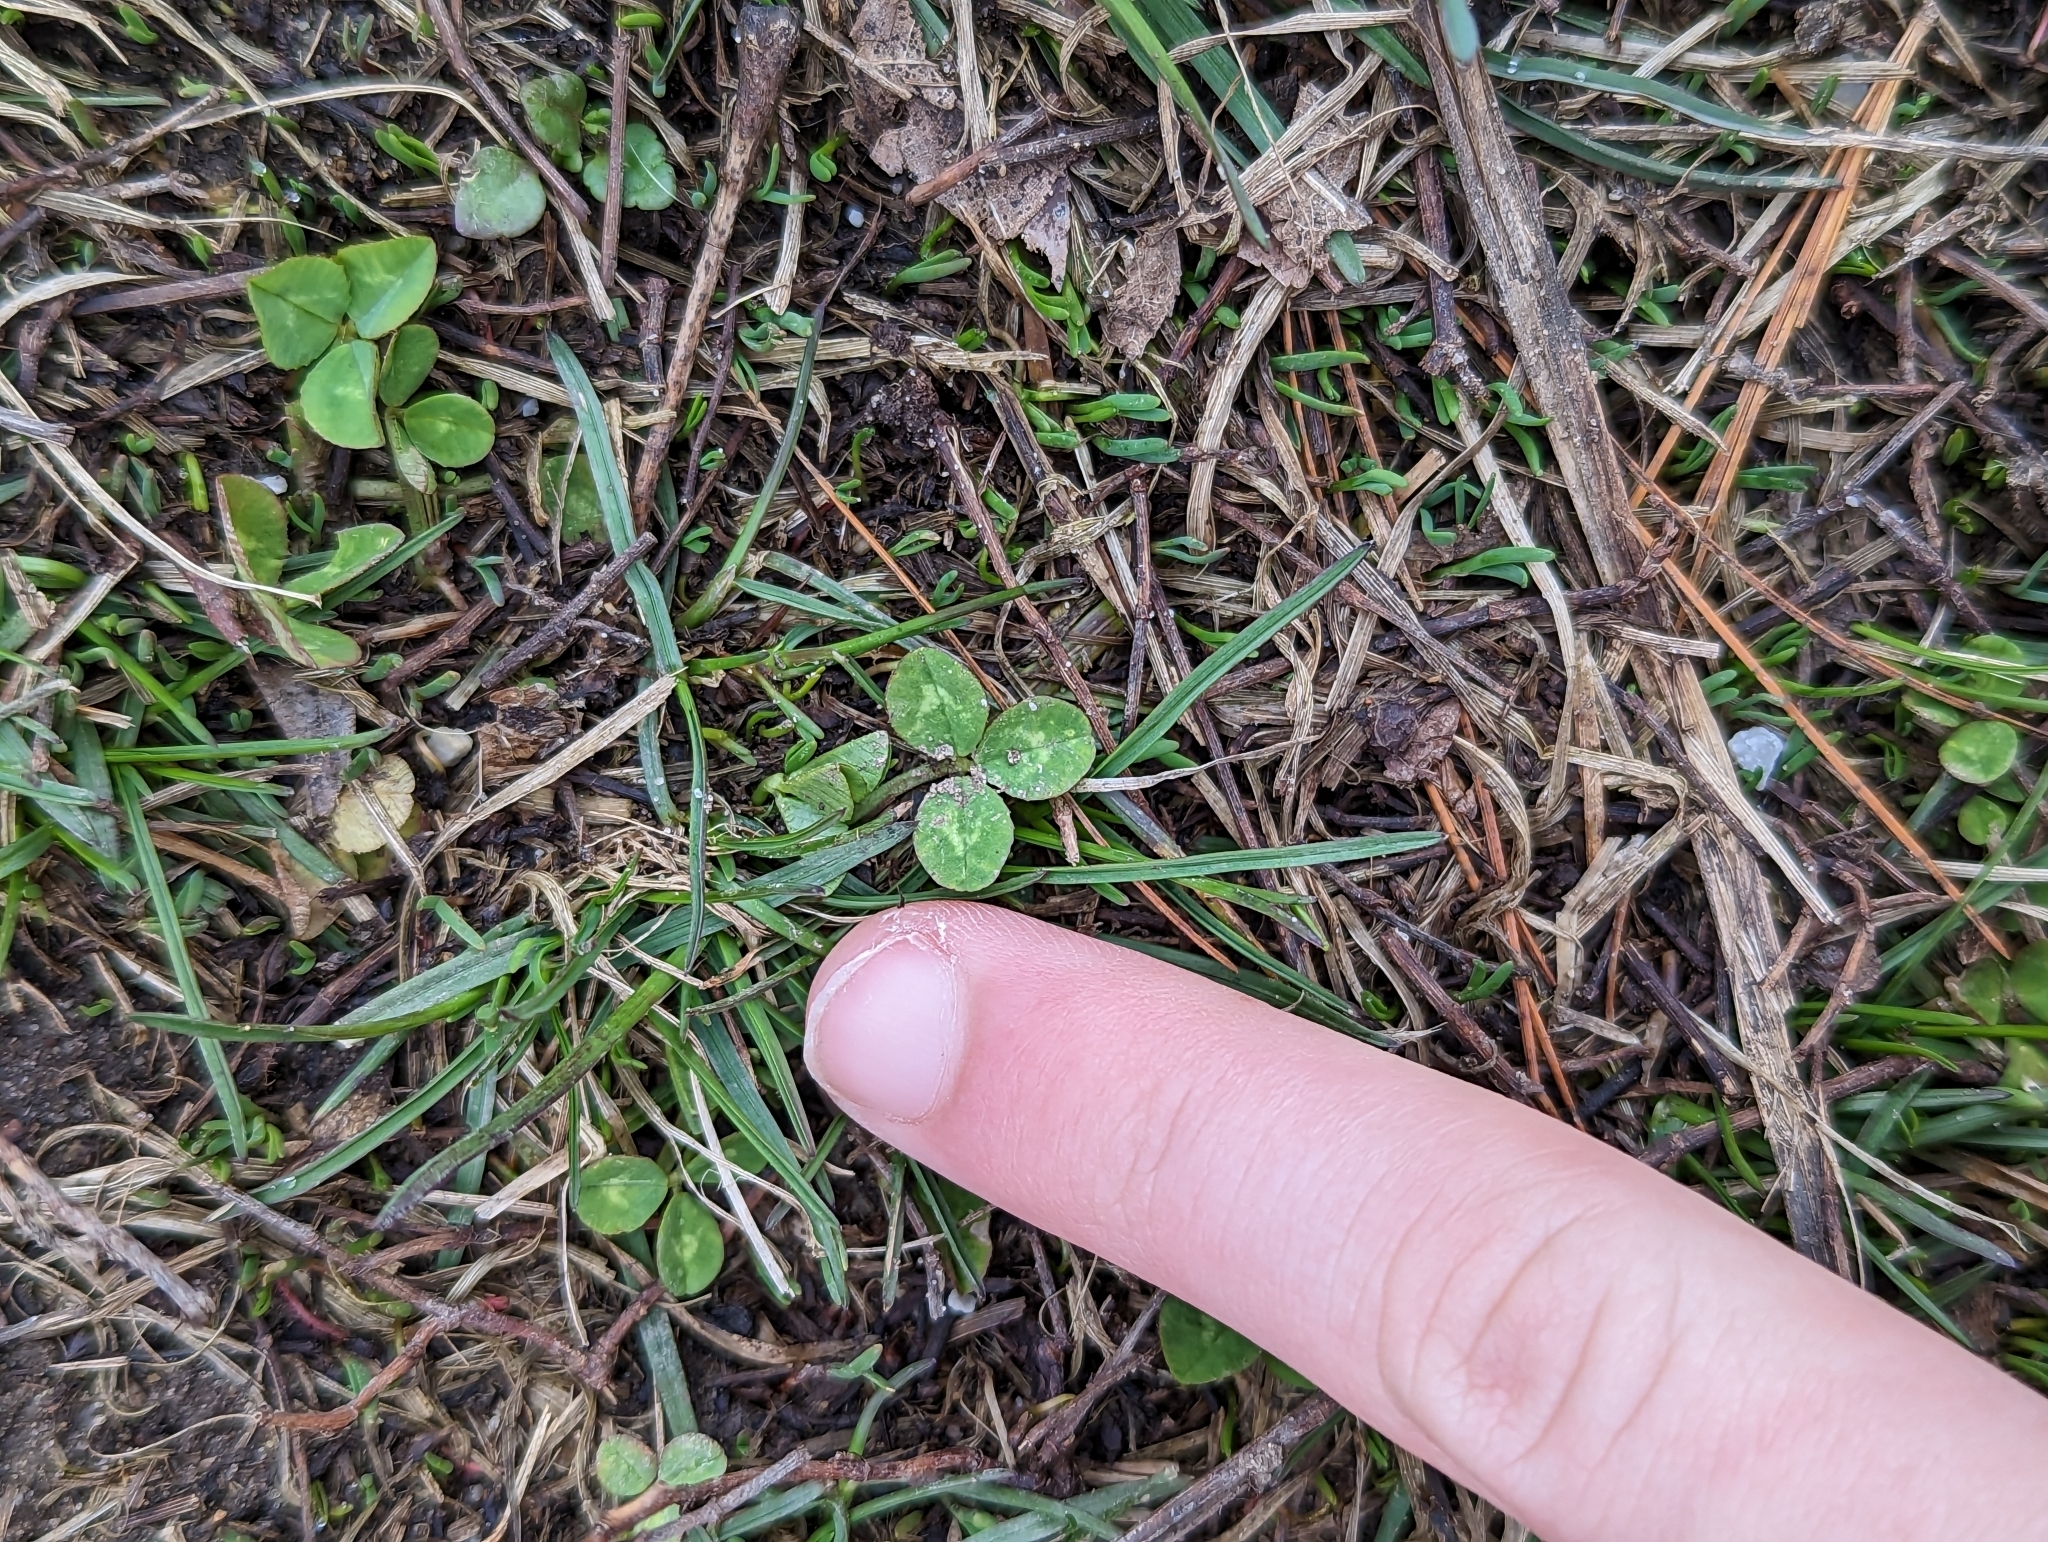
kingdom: Plantae
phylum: Tracheophyta
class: Magnoliopsida
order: Fabales
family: Fabaceae
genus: Trifolium
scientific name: Trifolium repens
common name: White clover
